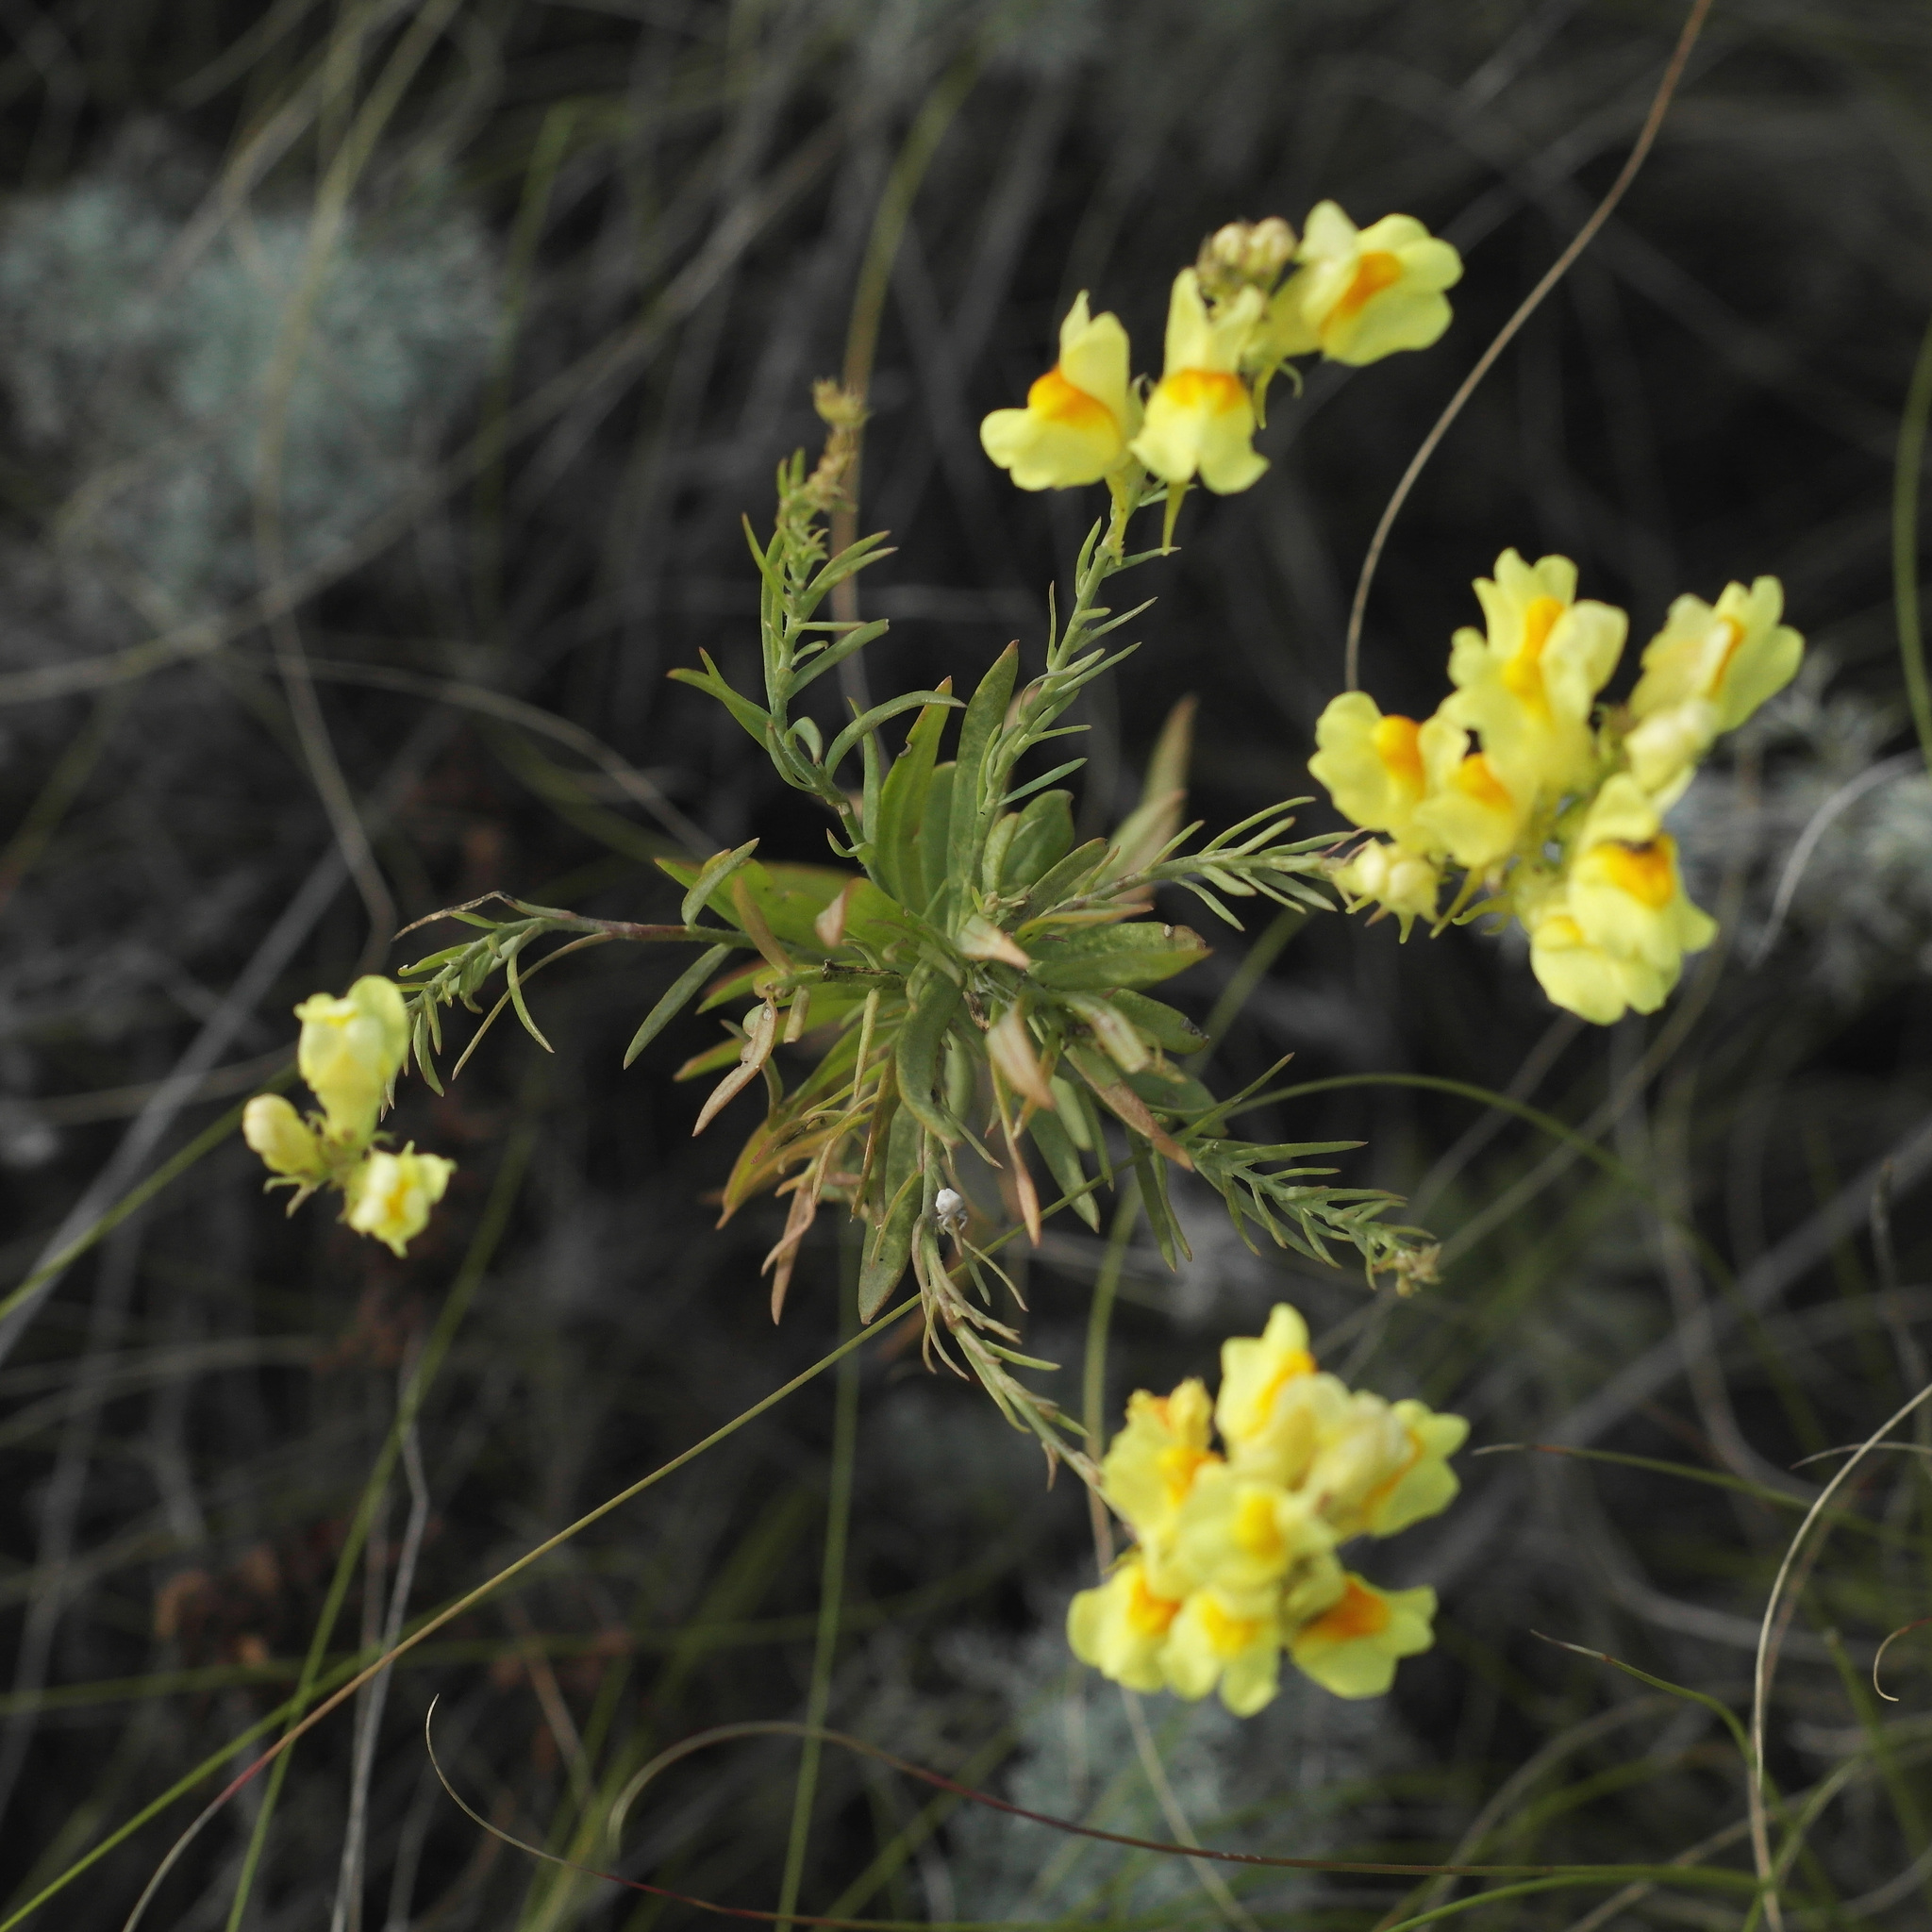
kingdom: Plantae
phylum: Tracheophyta
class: Magnoliopsida
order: Lamiales
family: Plantaginaceae
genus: Linaria
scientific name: Linaria vulgaris
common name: Butter and eggs
